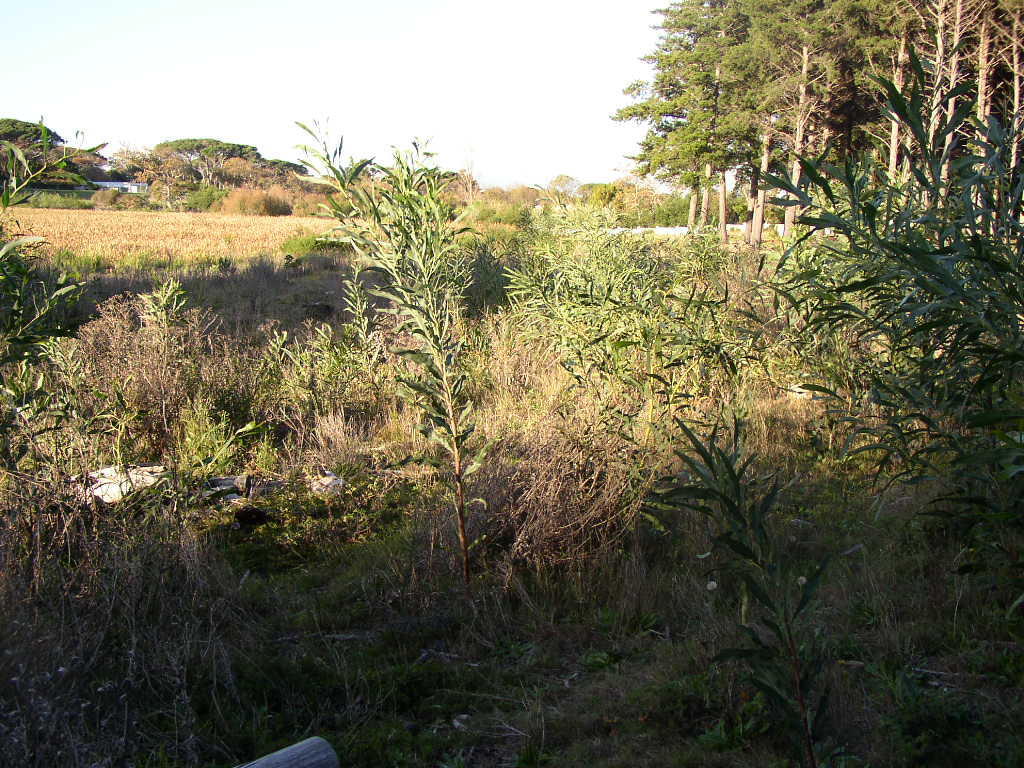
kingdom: Plantae
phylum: Tracheophyta
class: Magnoliopsida
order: Fabales
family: Fabaceae
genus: Acacia
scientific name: Acacia saligna
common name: Orange wattle
